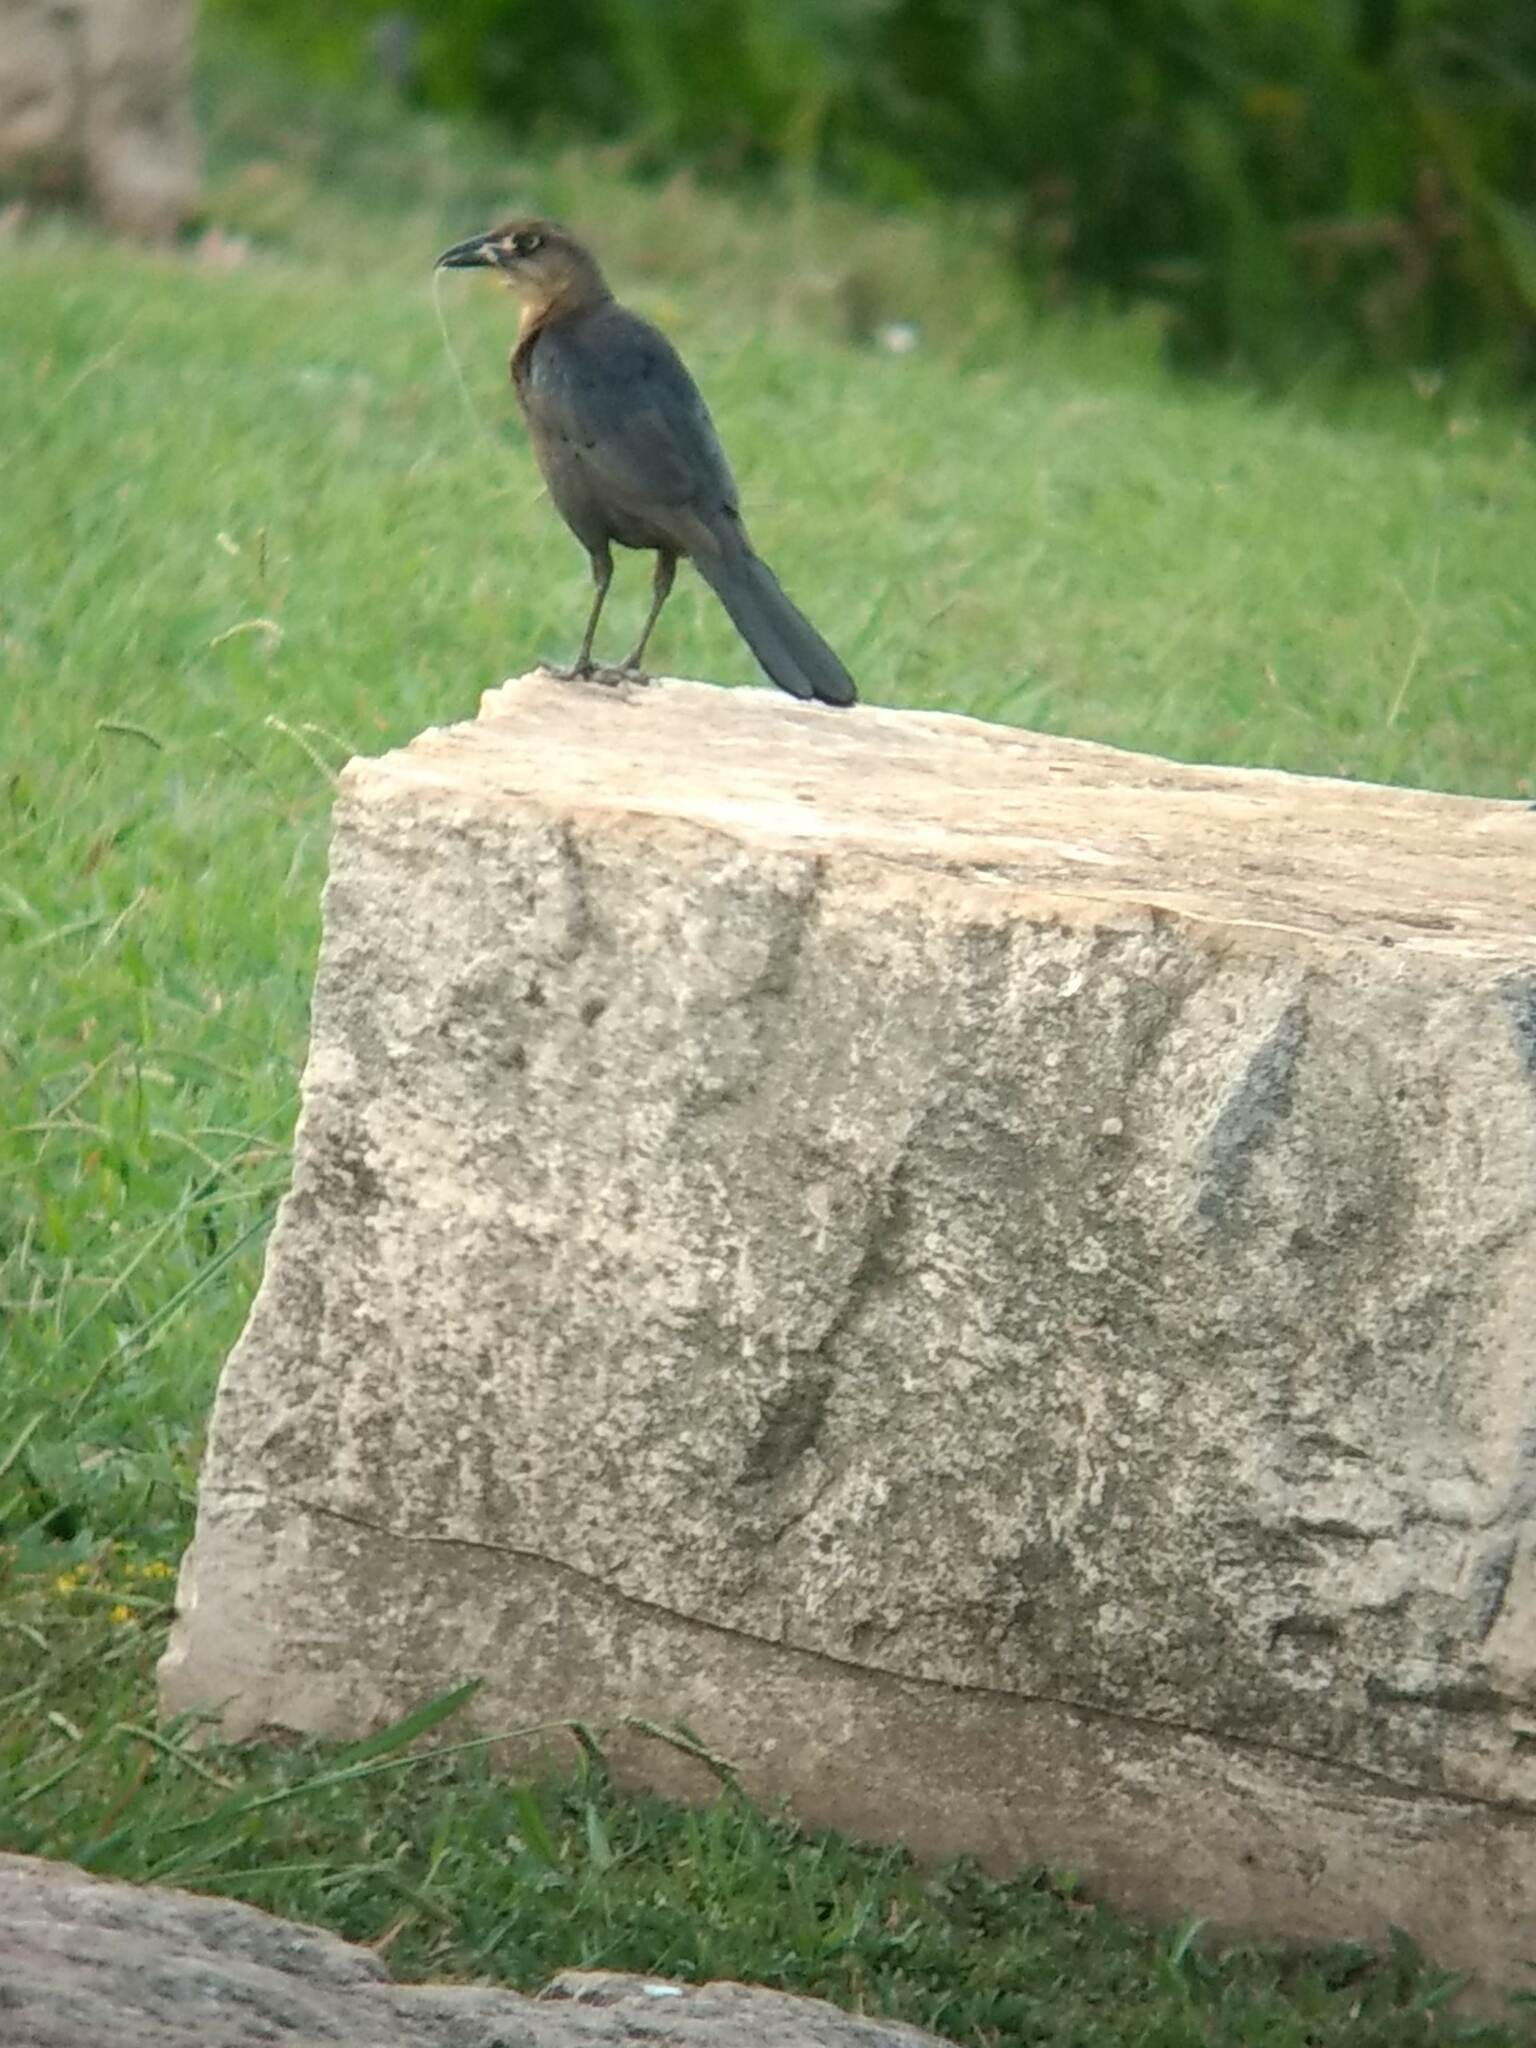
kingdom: Animalia
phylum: Chordata
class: Aves
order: Passeriformes
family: Icteridae
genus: Quiscalus
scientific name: Quiscalus mexicanus
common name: Great-tailed grackle
